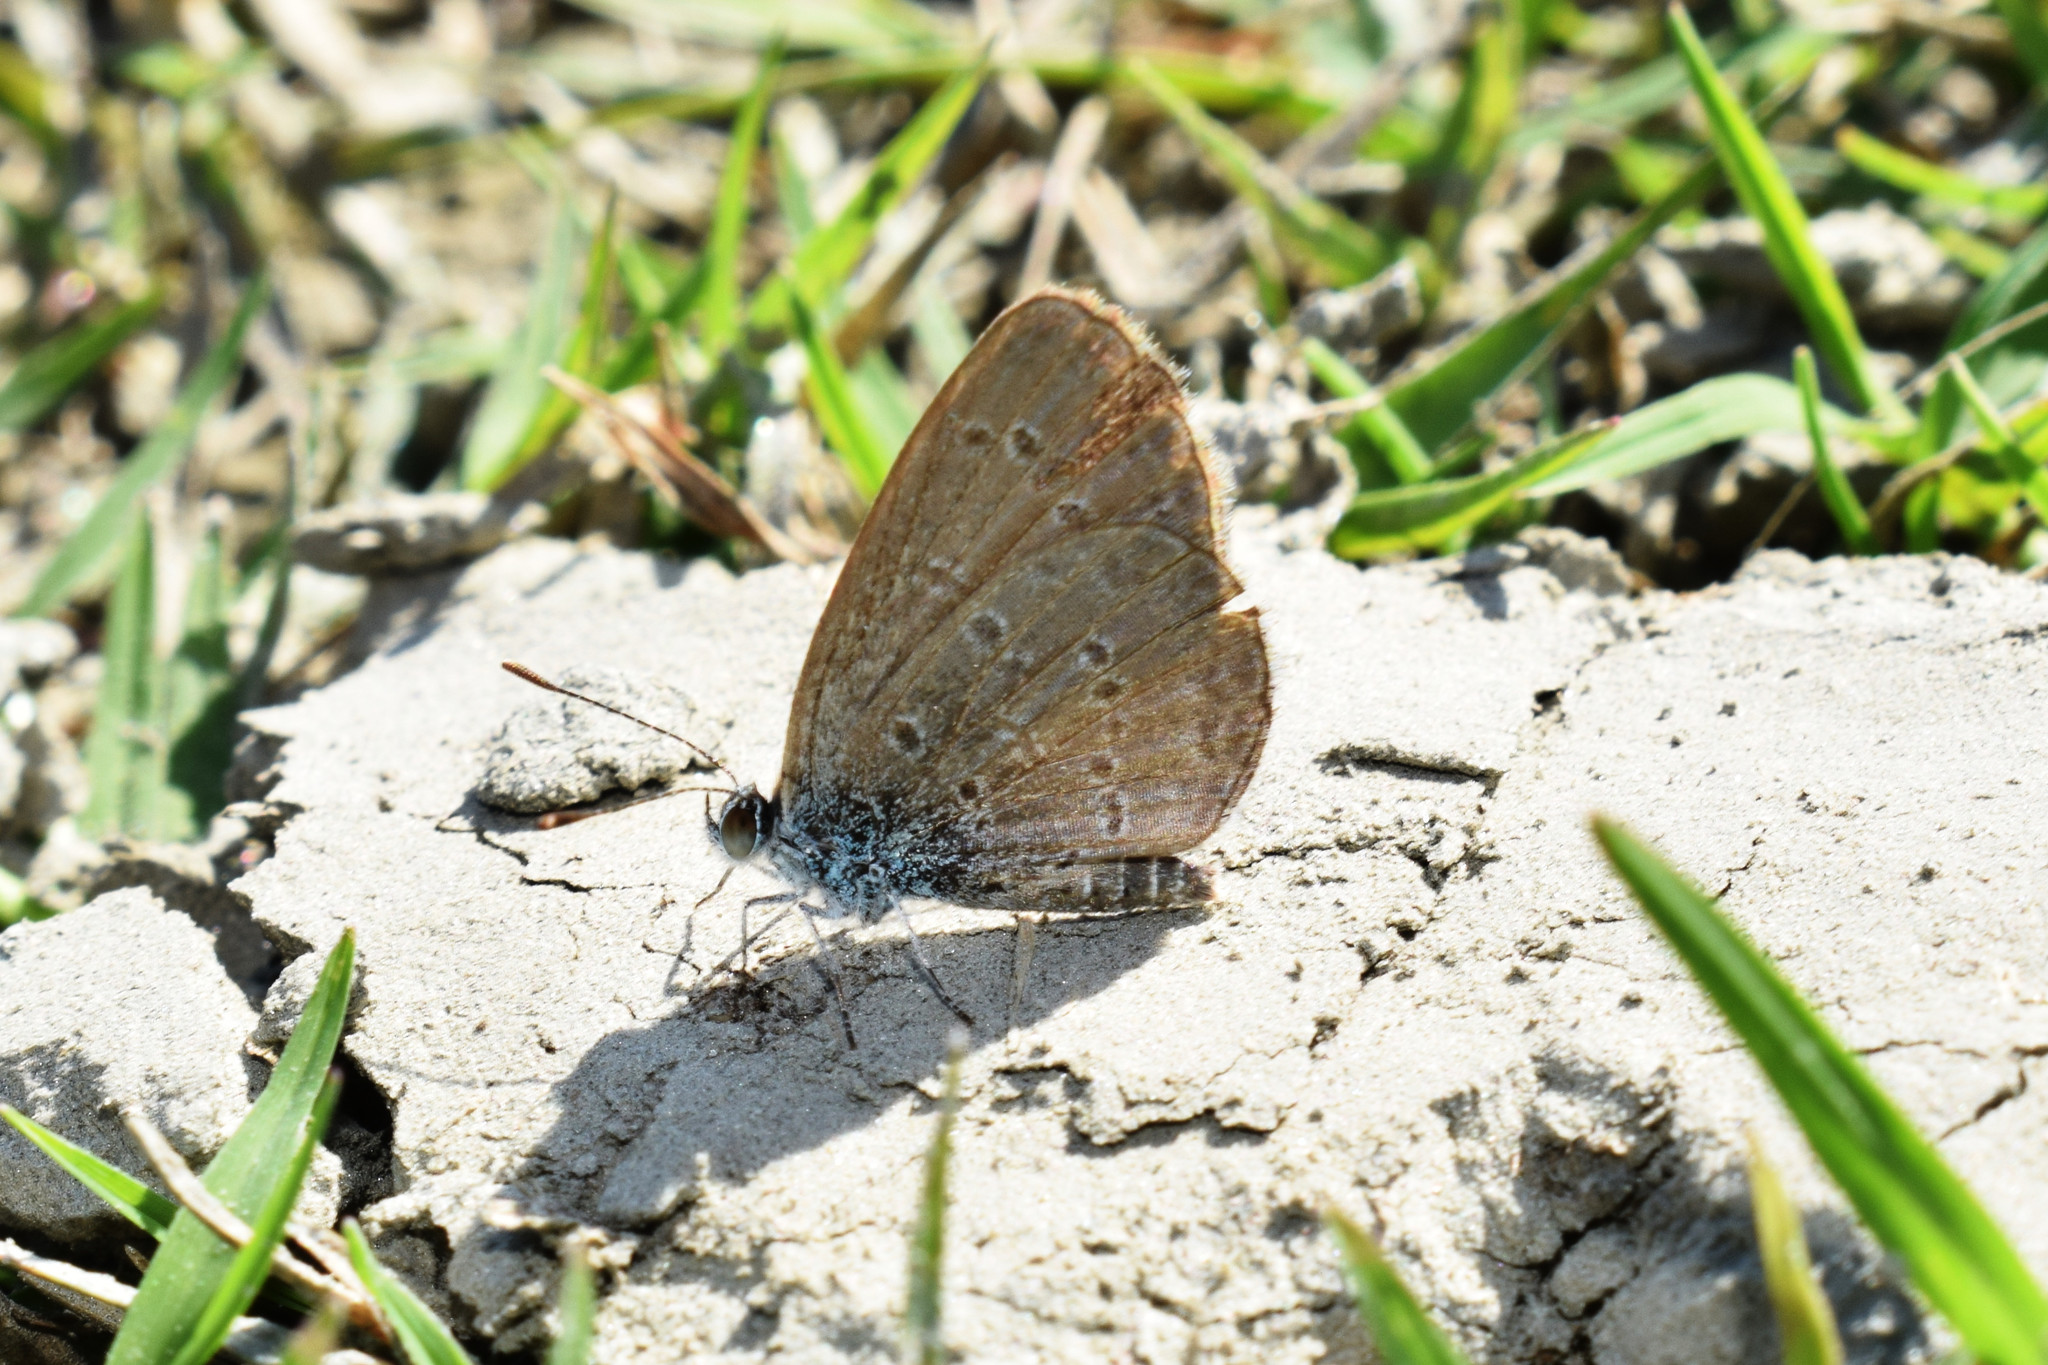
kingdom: Animalia
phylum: Arthropoda
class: Insecta
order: Lepidoptera
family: Lycaenidae
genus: Zizina
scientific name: Zizina otis
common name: Lesser grass blue
